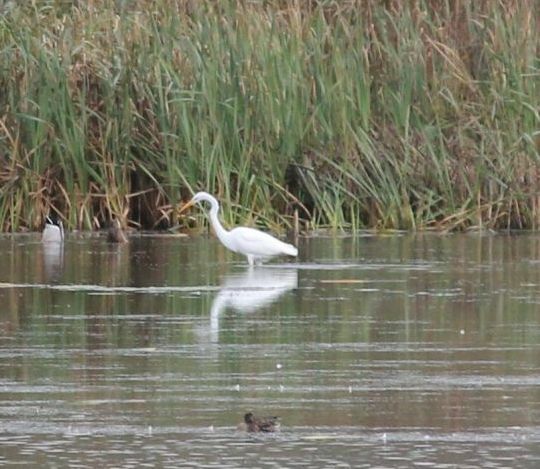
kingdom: Animalia
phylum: Chordata
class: Aves
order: Pelecaniformes
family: Ardeidae
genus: Ardea
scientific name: Ardea alba
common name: Great egret
